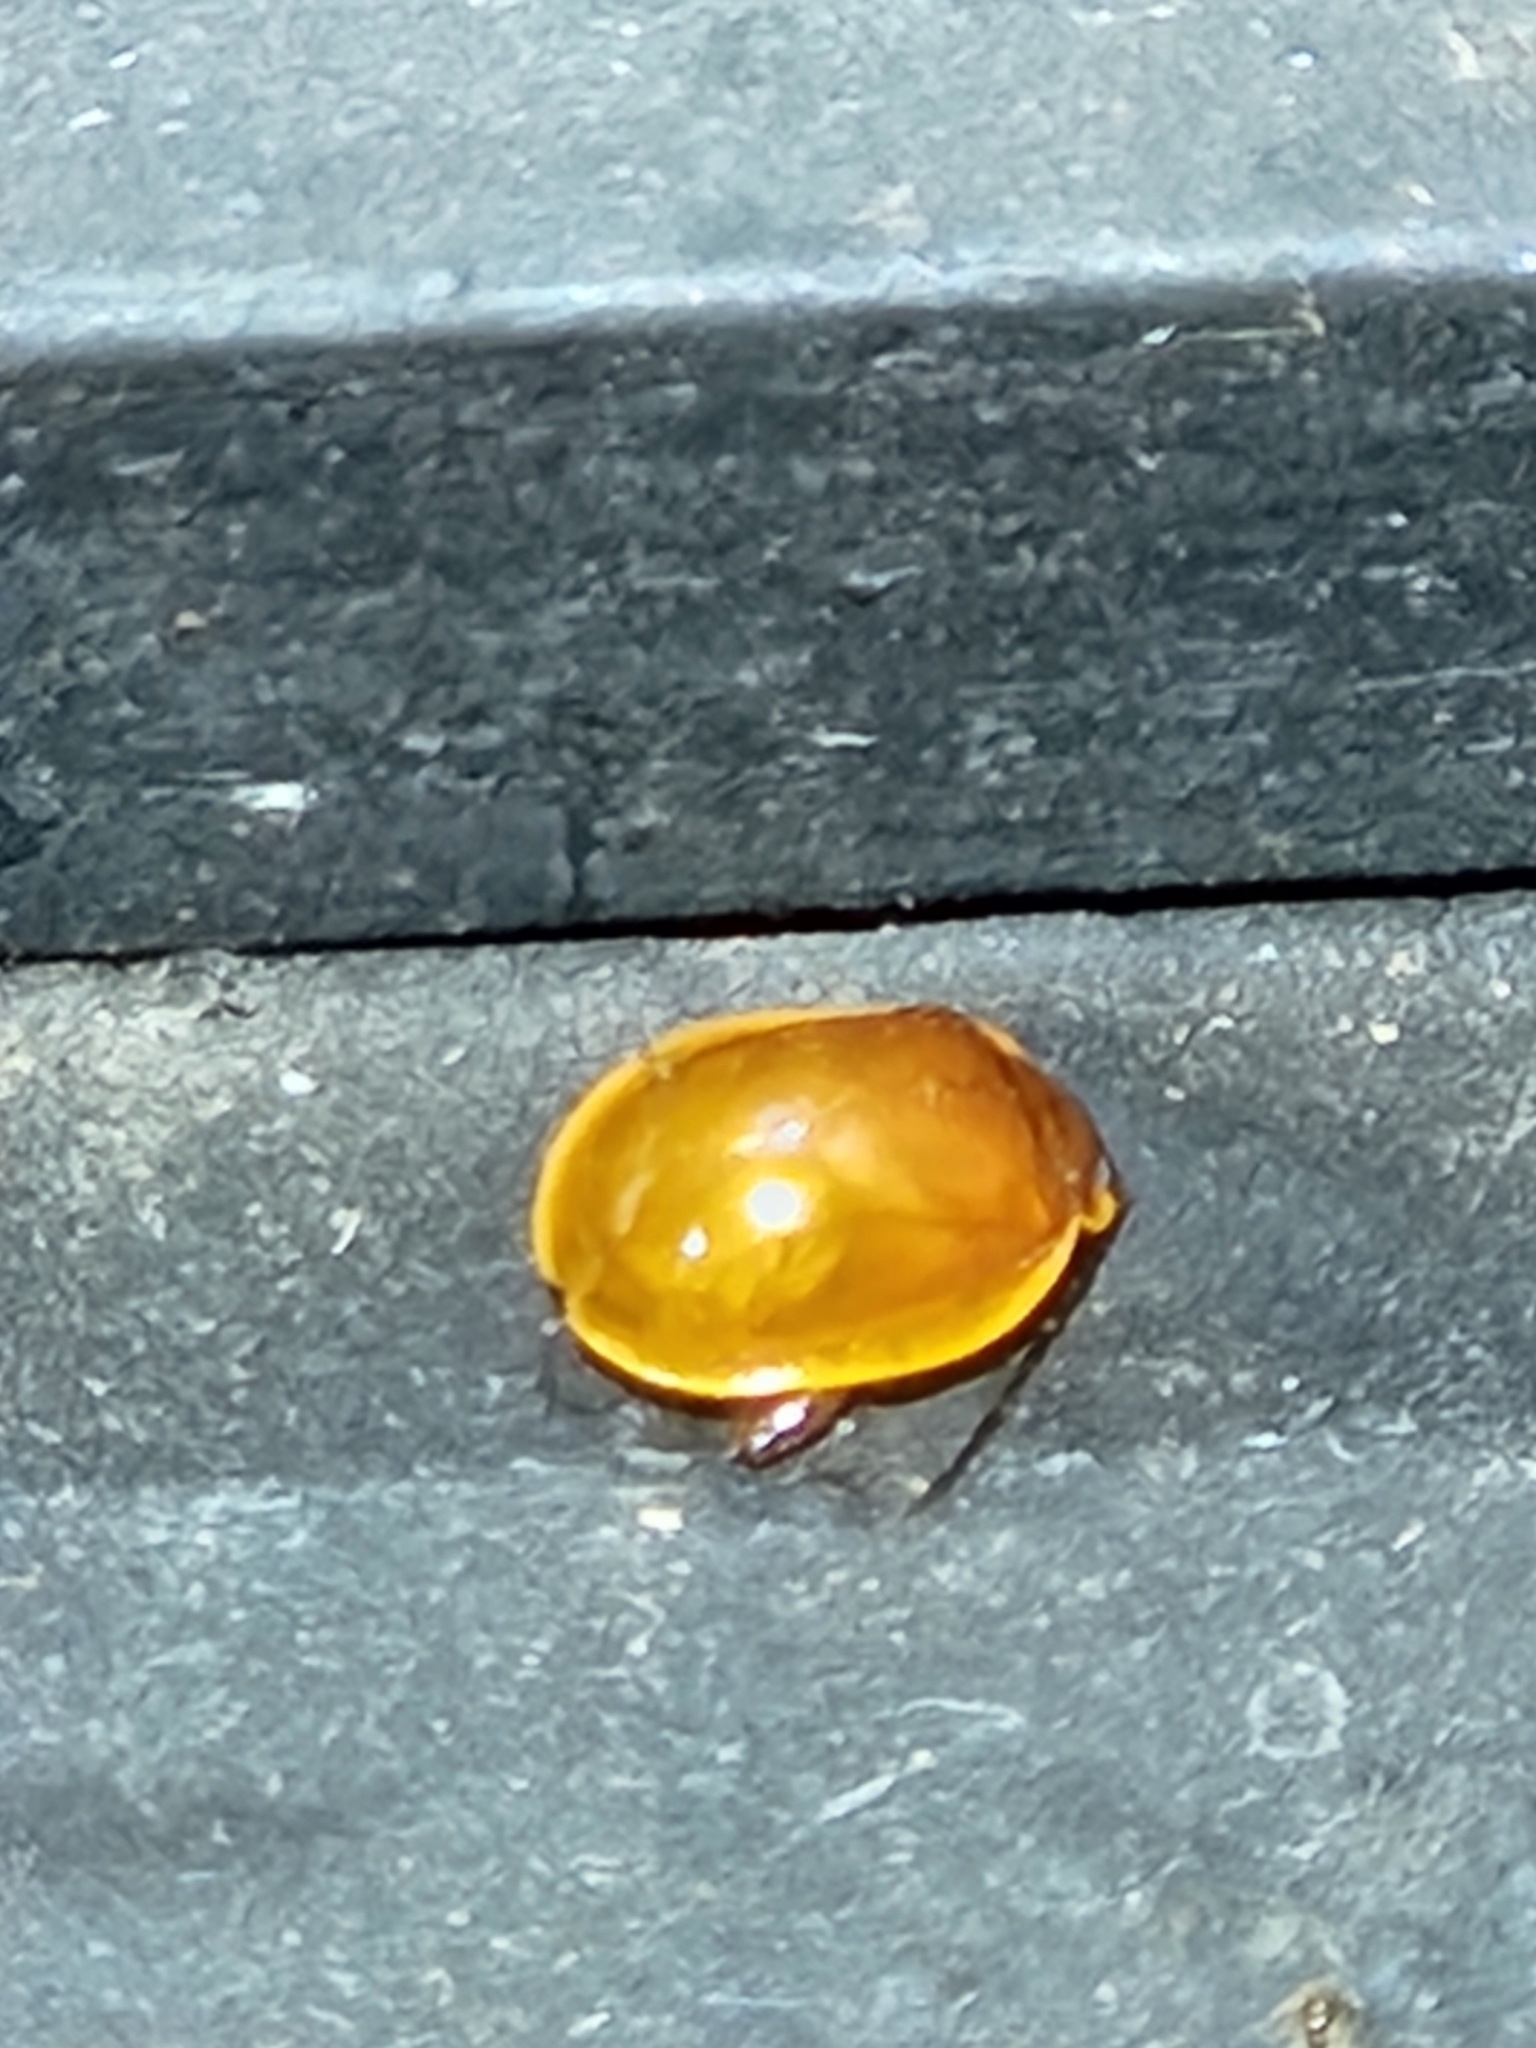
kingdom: Animalia
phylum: Arthropoda
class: Insecta
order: Coleoptera
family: Chrysomelidae
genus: Alagoasa
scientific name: Alagoasa aurora
